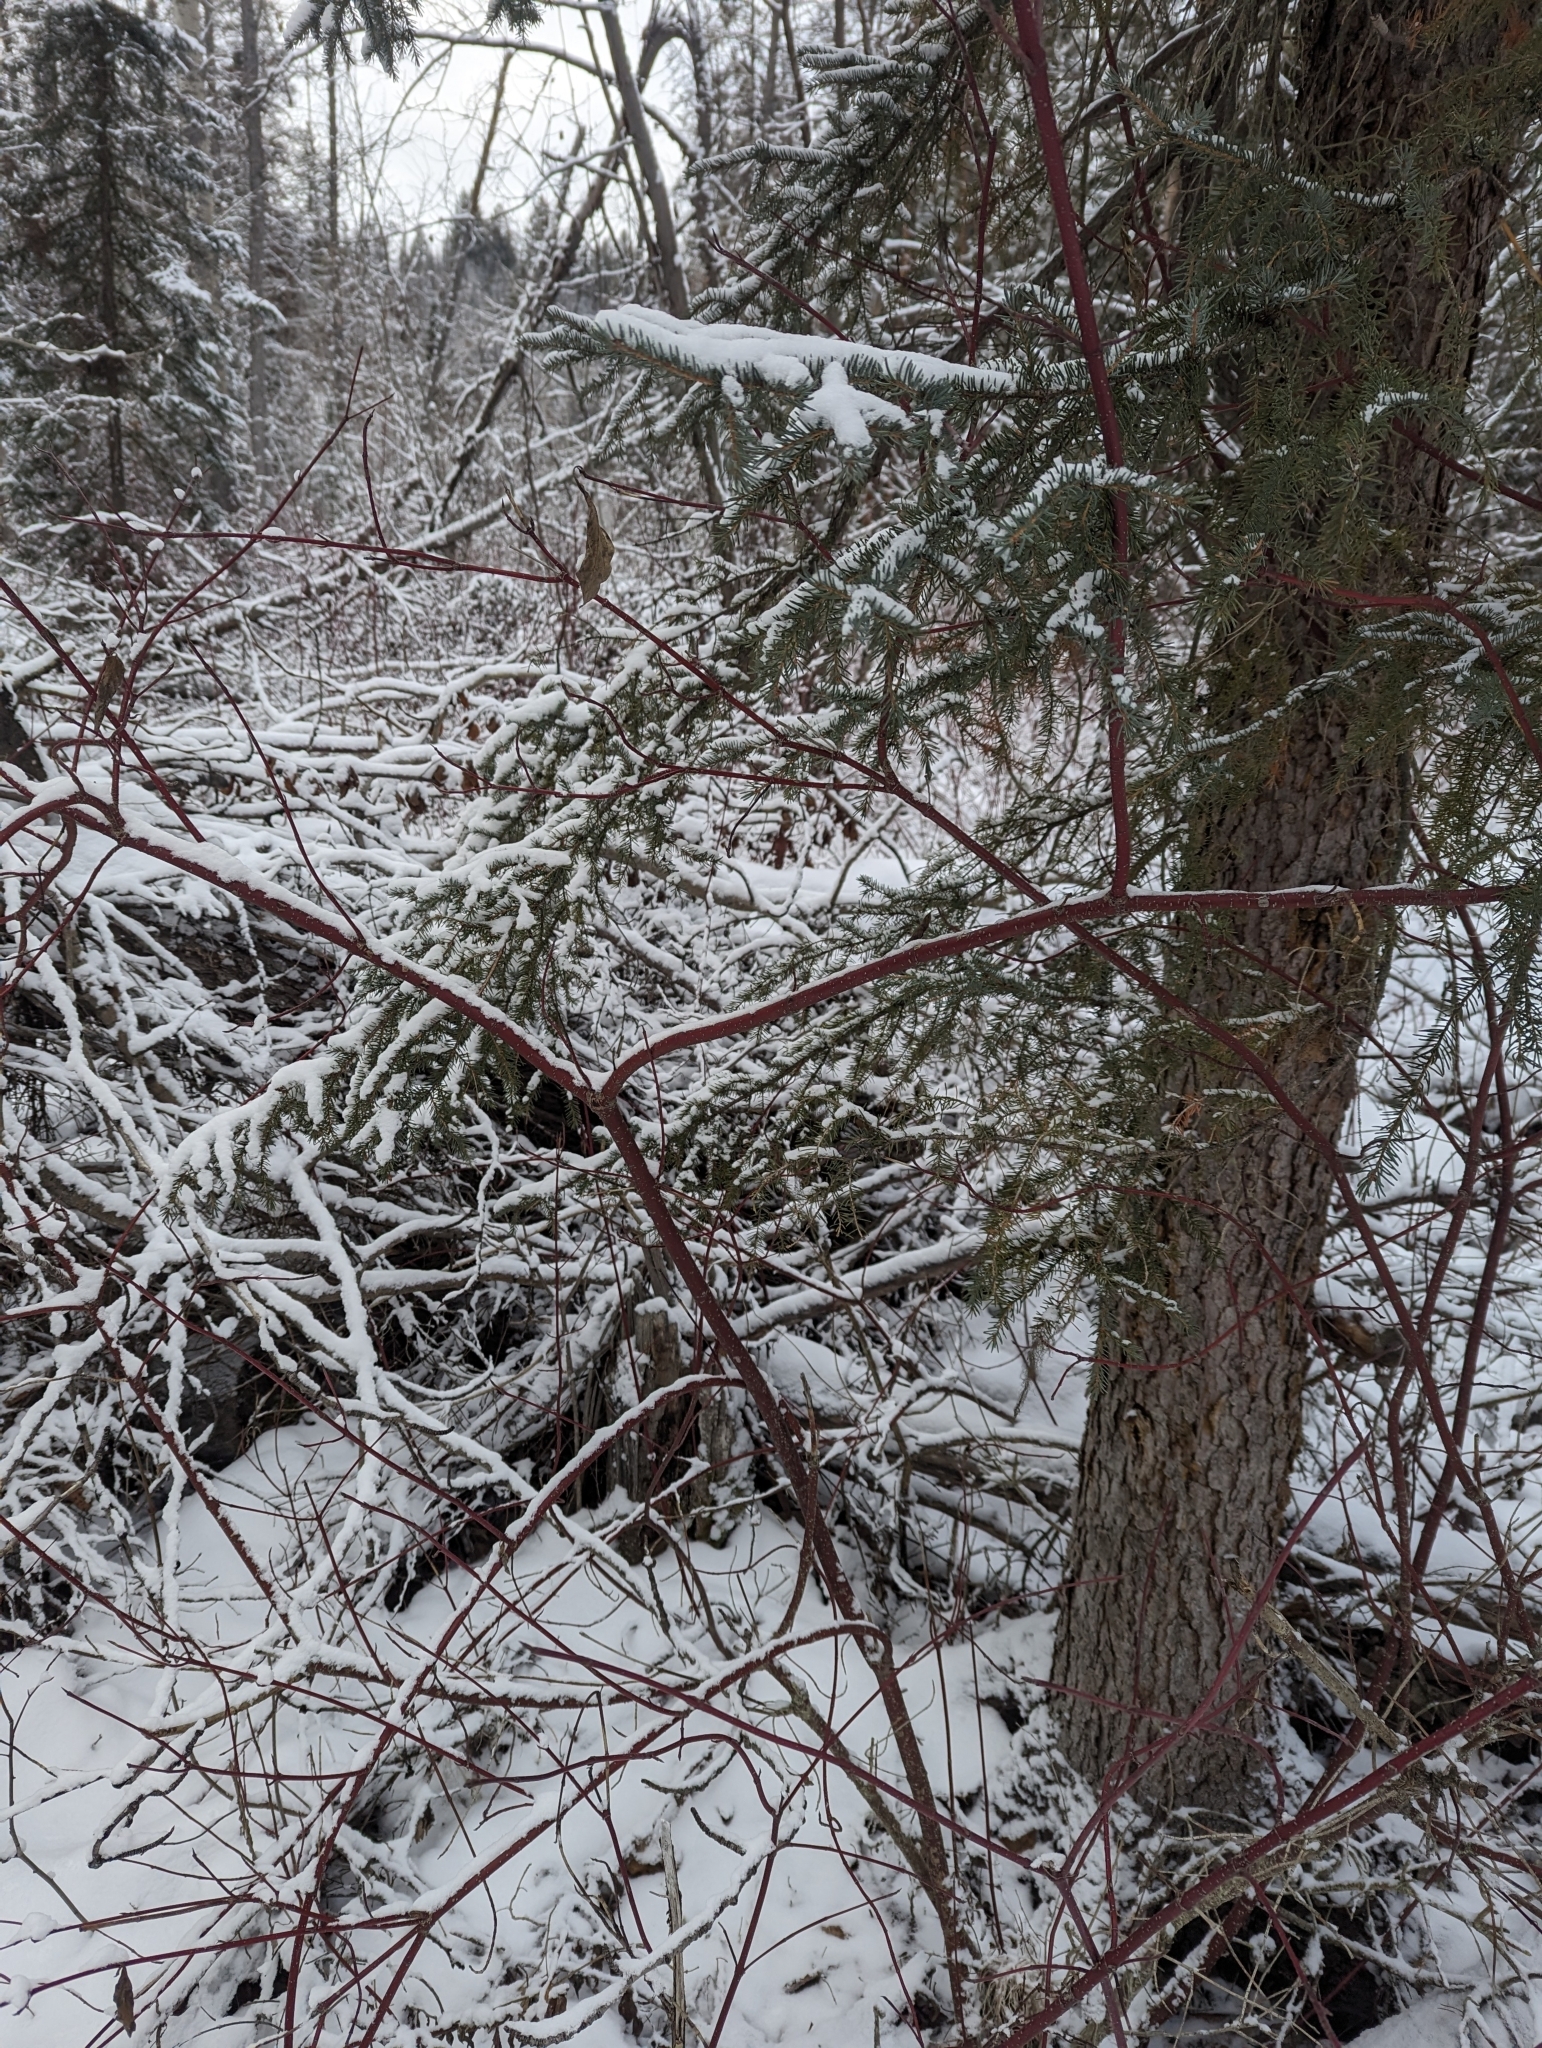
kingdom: Plantae
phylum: Tracheophyta
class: Magnoliopsida
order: Cornales
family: Cornaceae
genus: Cornus
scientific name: Cornus sericea
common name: Red-osier dogwood
